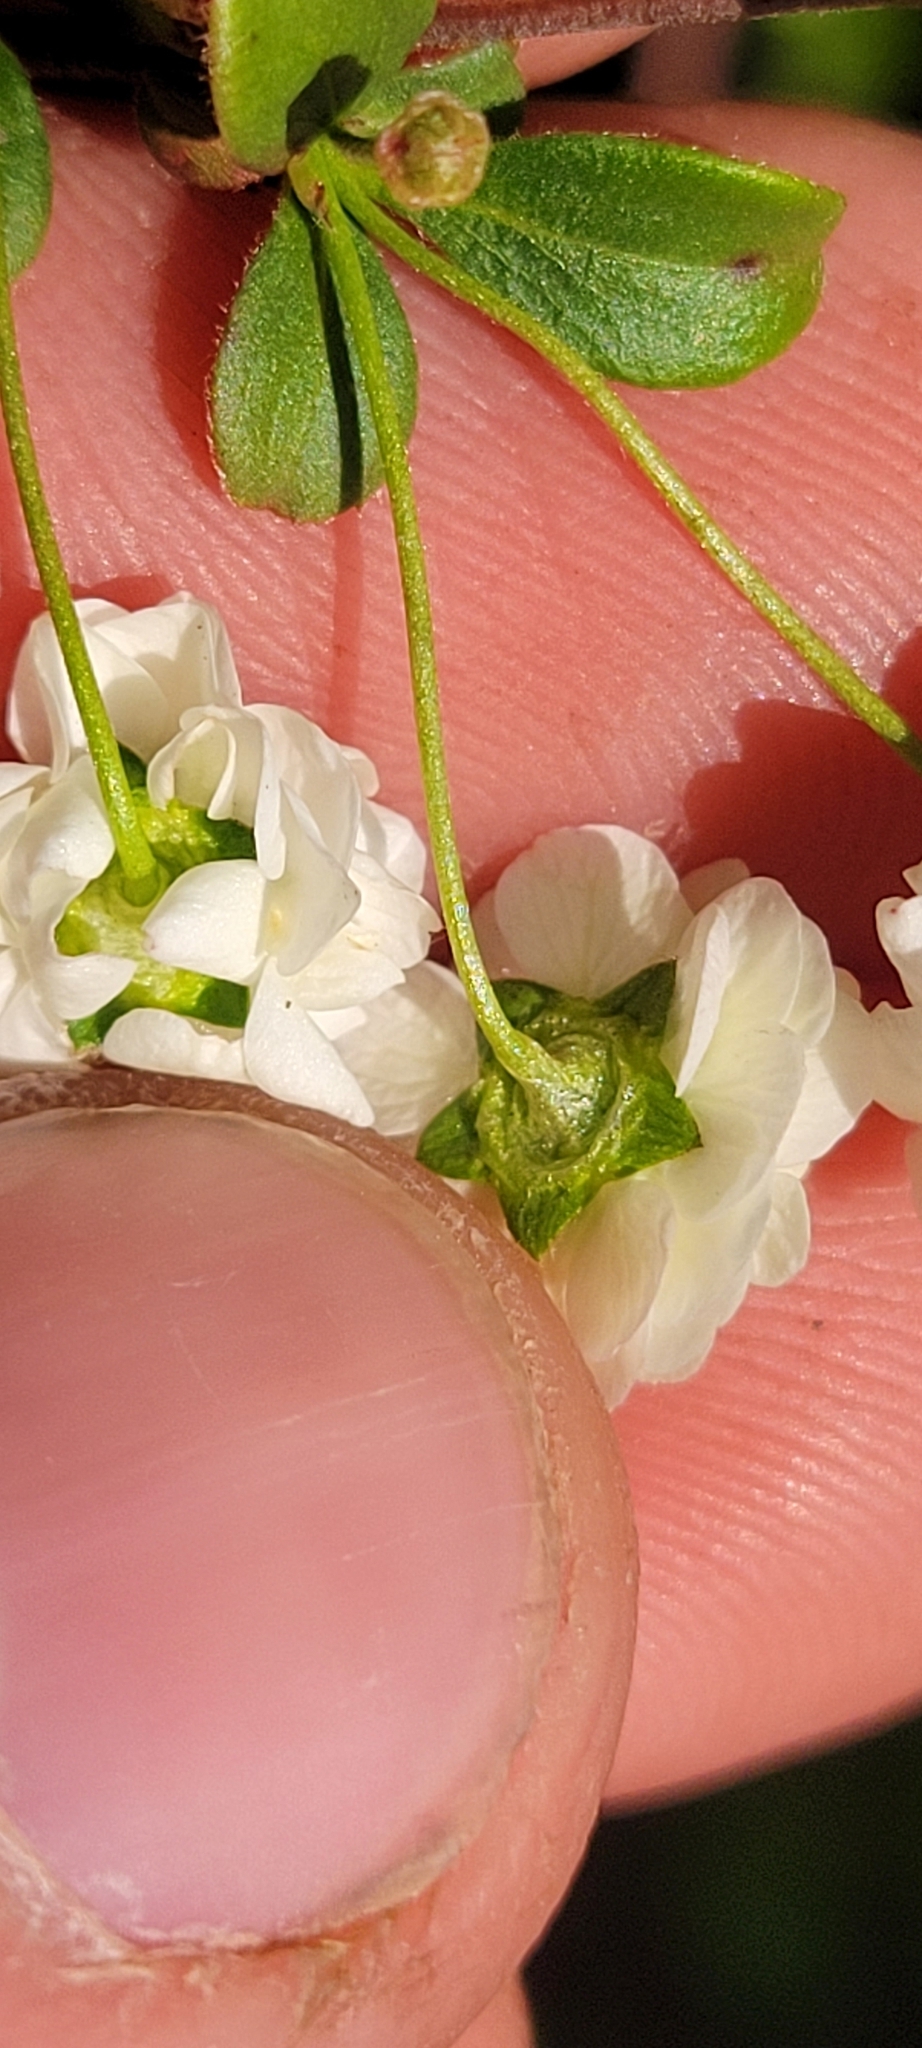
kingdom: Plantae
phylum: Tracheophyta
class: Magnoliopsida
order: Rosales
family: Rosaceae
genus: Spiraea
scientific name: Spiraea prunifolia
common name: Bridal-wreath spiraea
